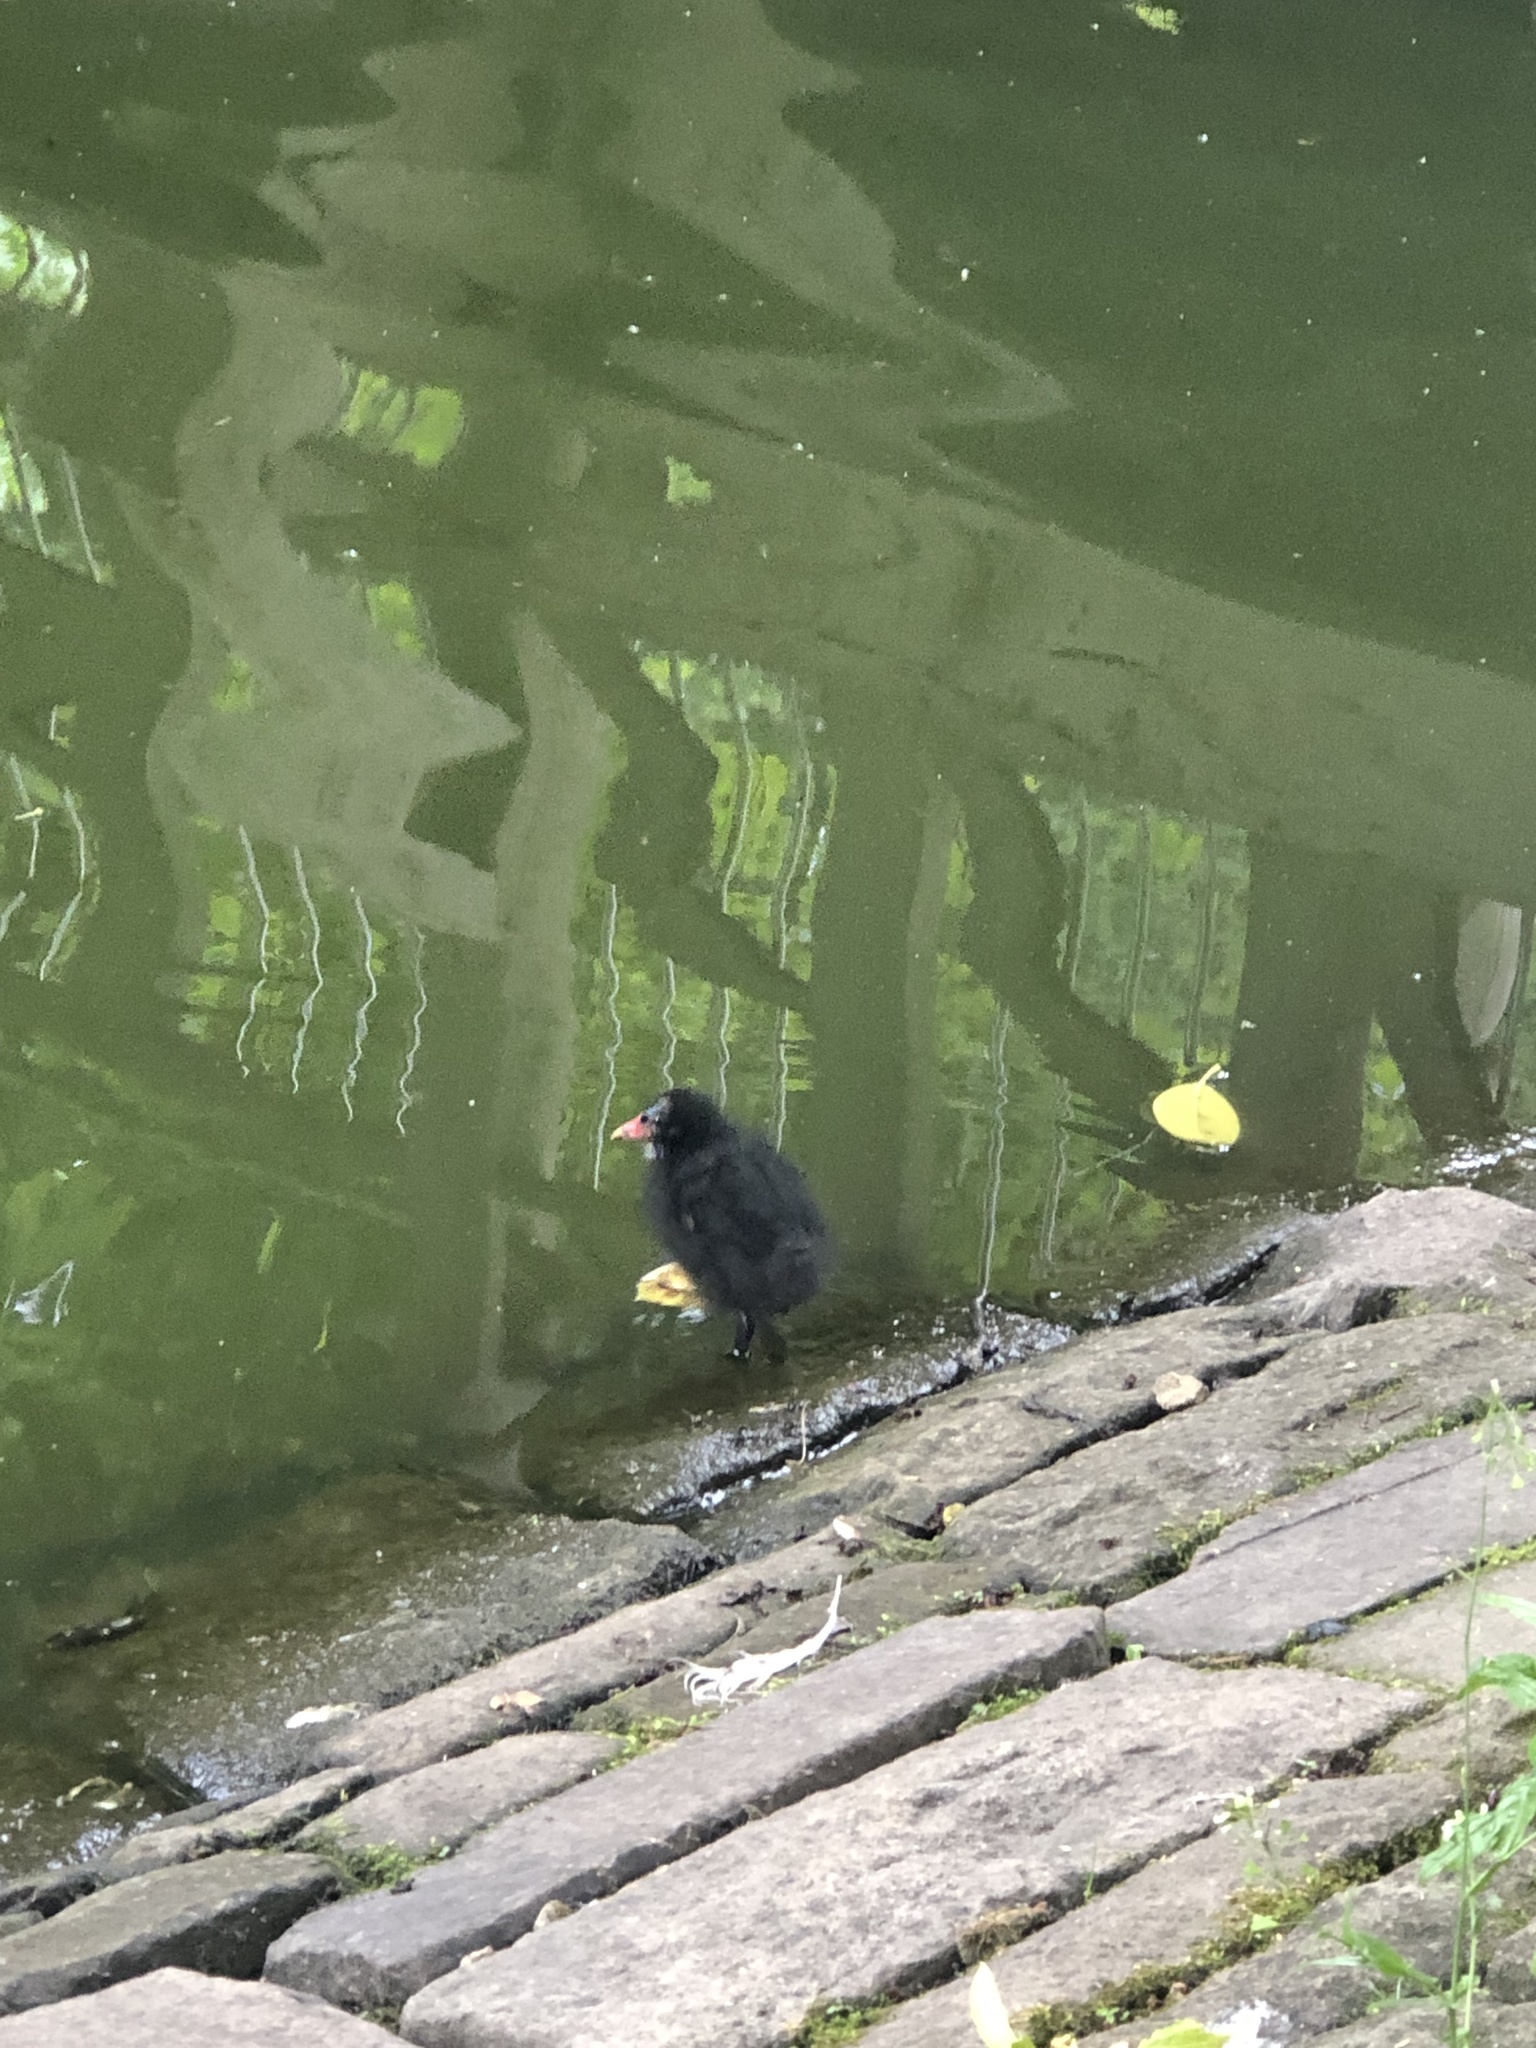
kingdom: Animalia
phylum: Chordata
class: Aves
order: Gruiformes
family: Rallidae
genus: Gallinula
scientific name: Gallinula chloropus
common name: Common moorhen
